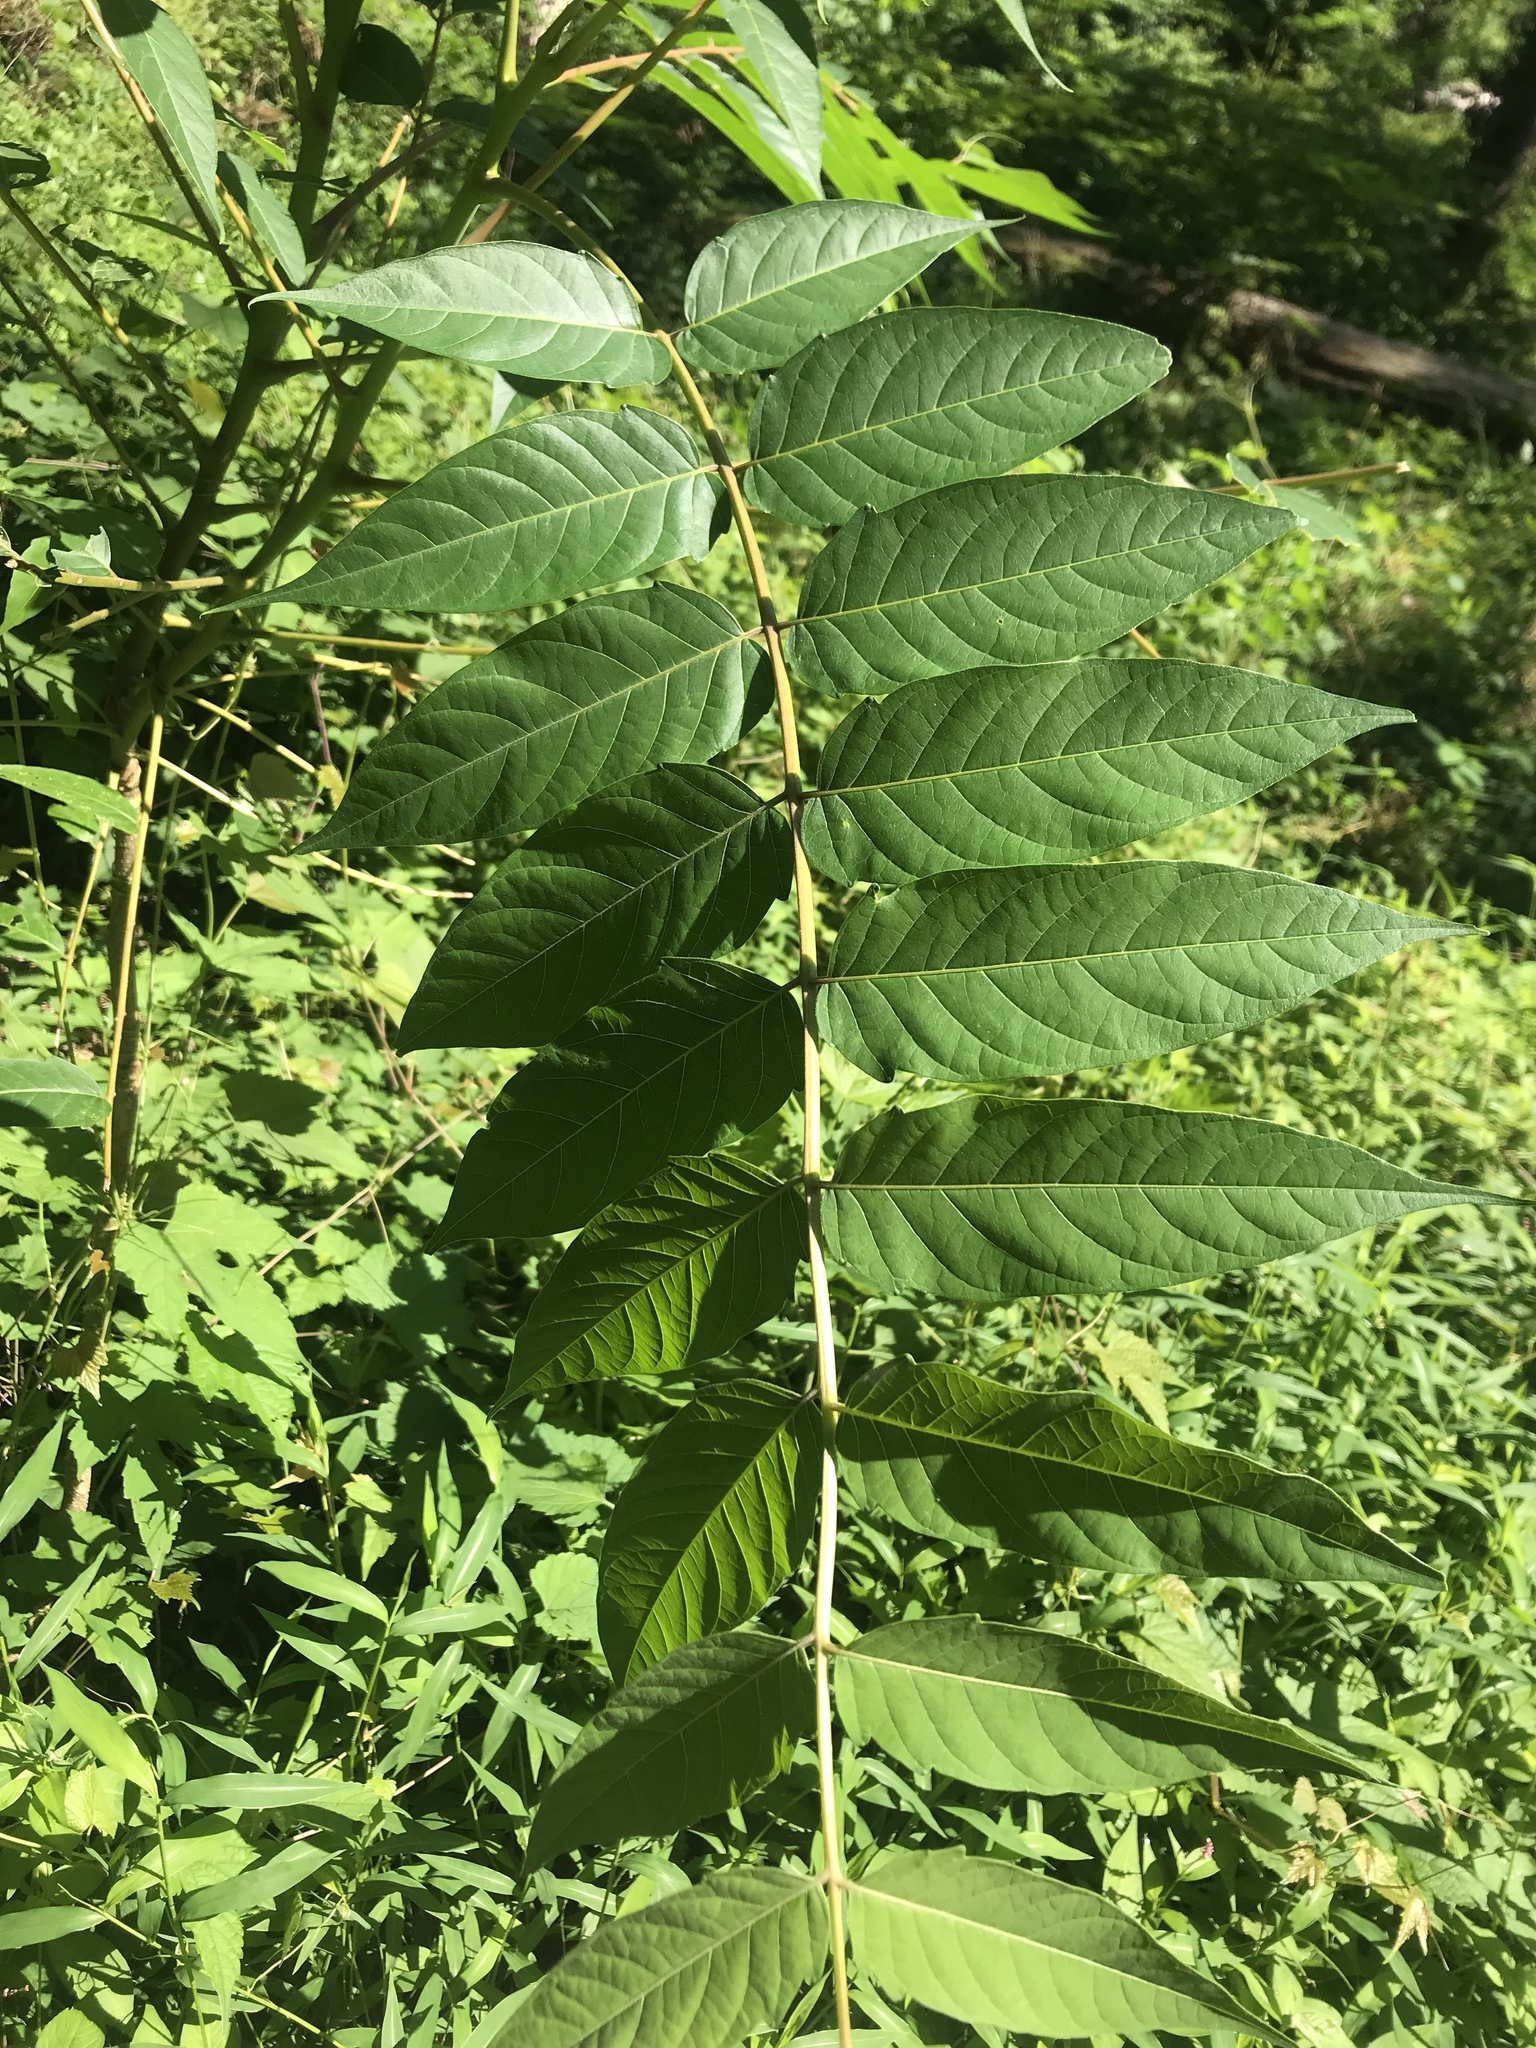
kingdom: Plantae
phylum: Tracheophyta
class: Magnoliopsida
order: Sapindales
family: Simaroubaceae
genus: Ailanthus
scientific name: Ailanthus altissima
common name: Tree-of-heaven
